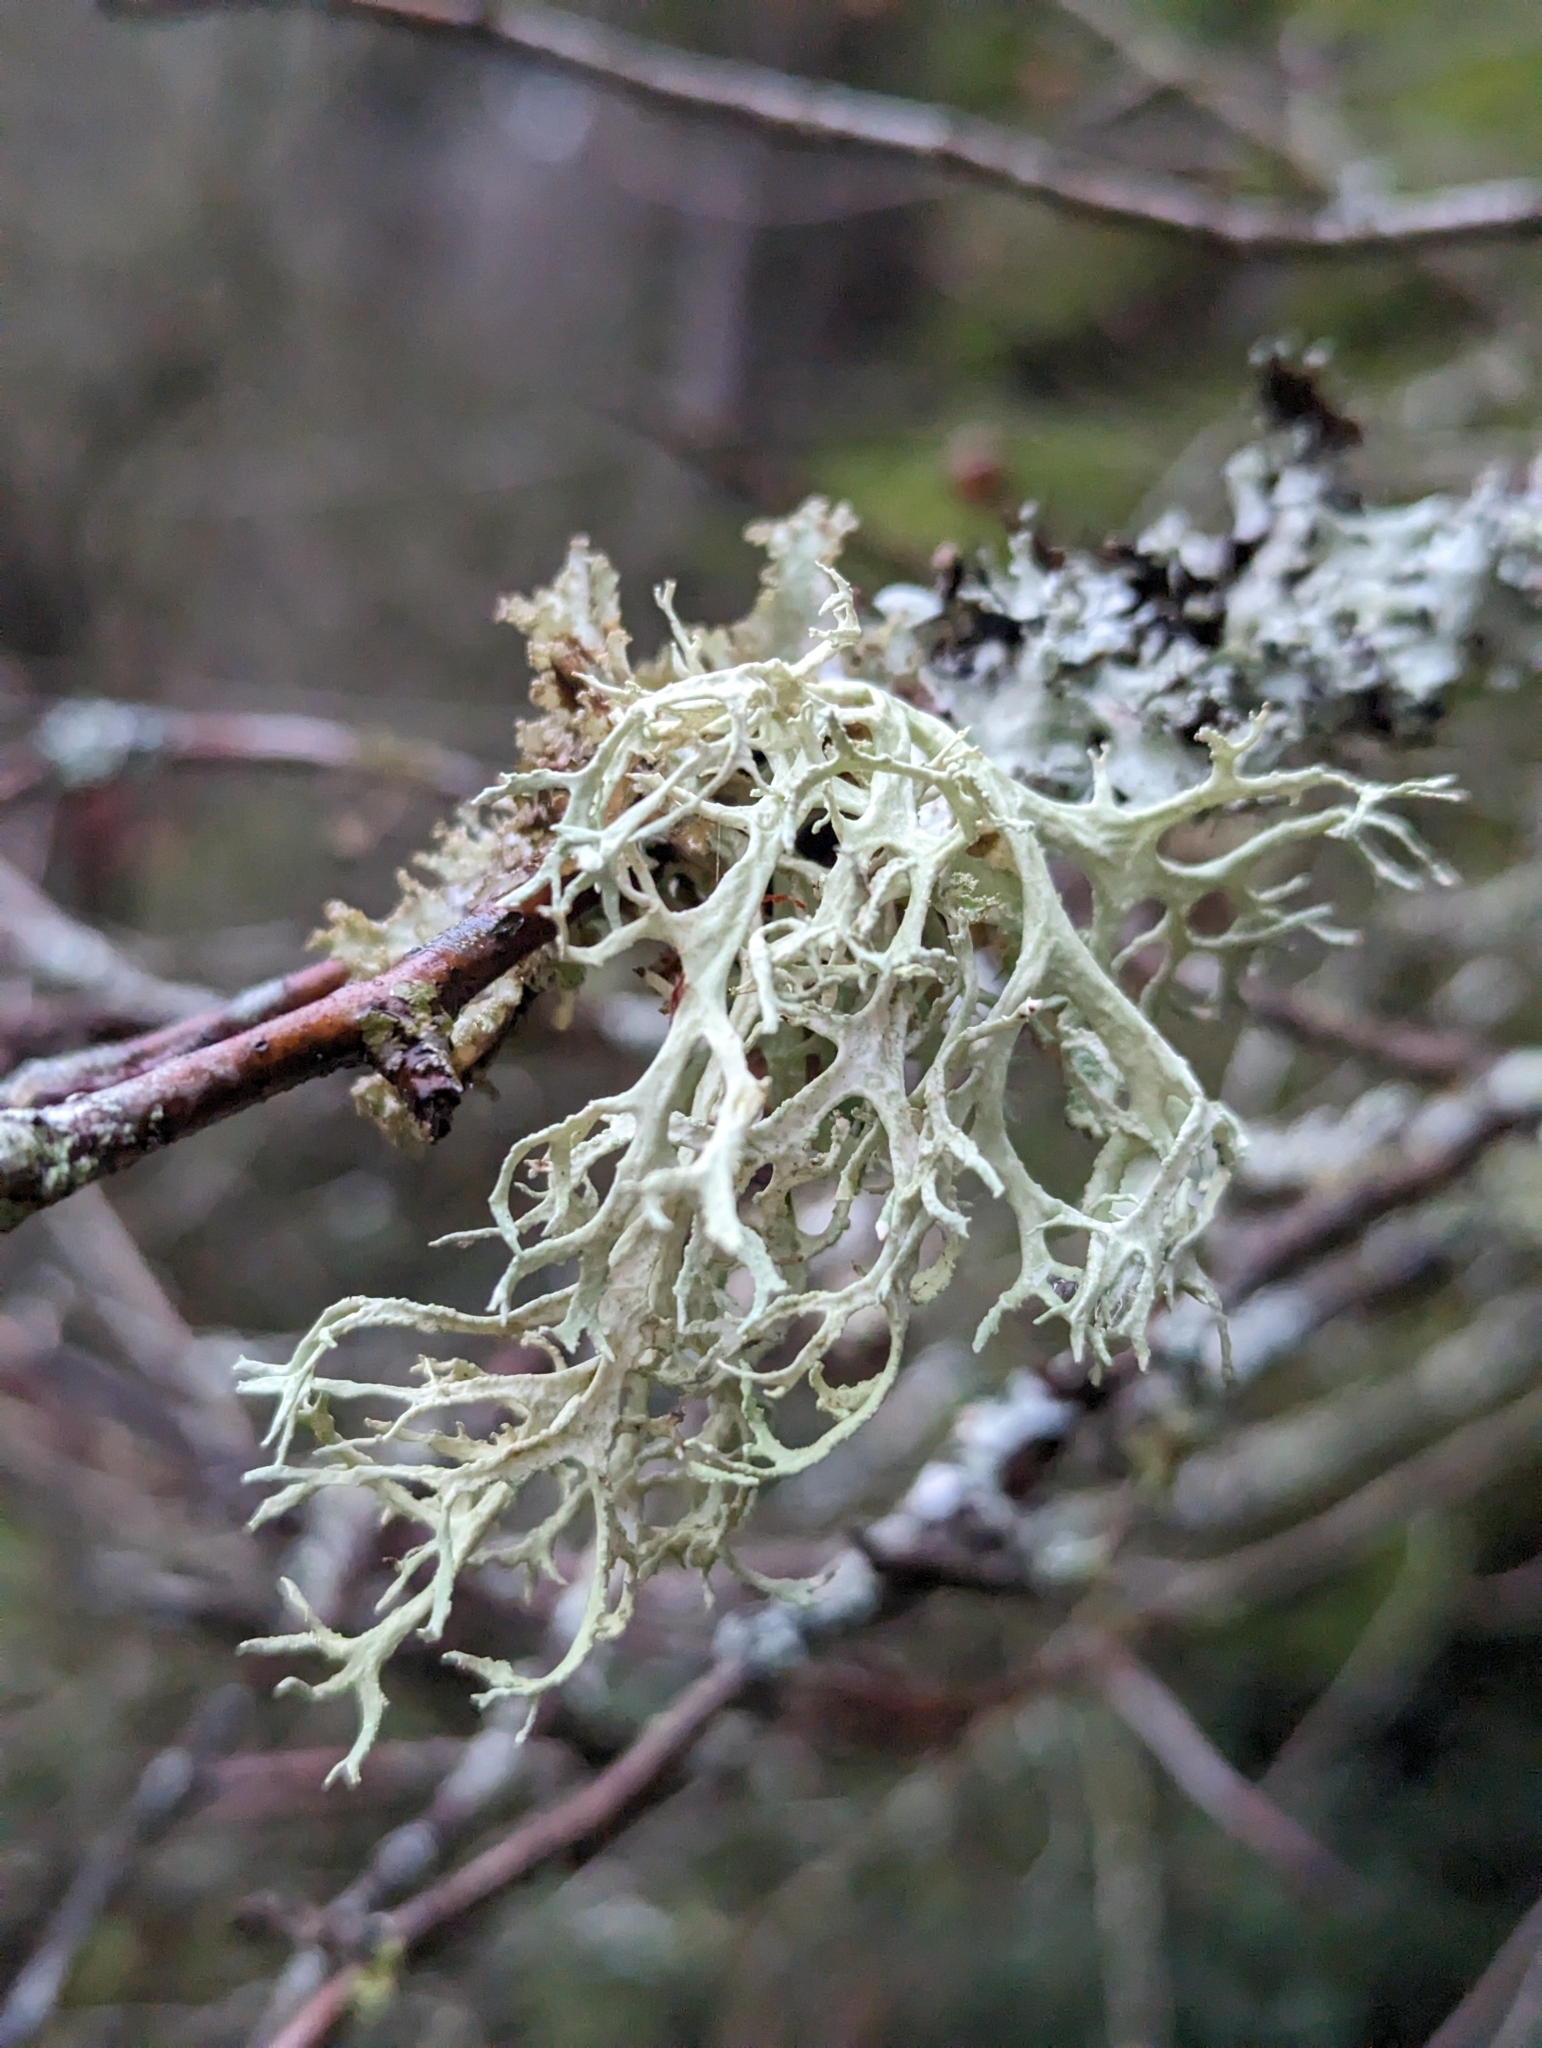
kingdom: Fungi
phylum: Ascomycota
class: Lecanoromycetes
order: Lecanorales
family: Parmeliaceae
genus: Evernia
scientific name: Evernia prunastri
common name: Oak moss
